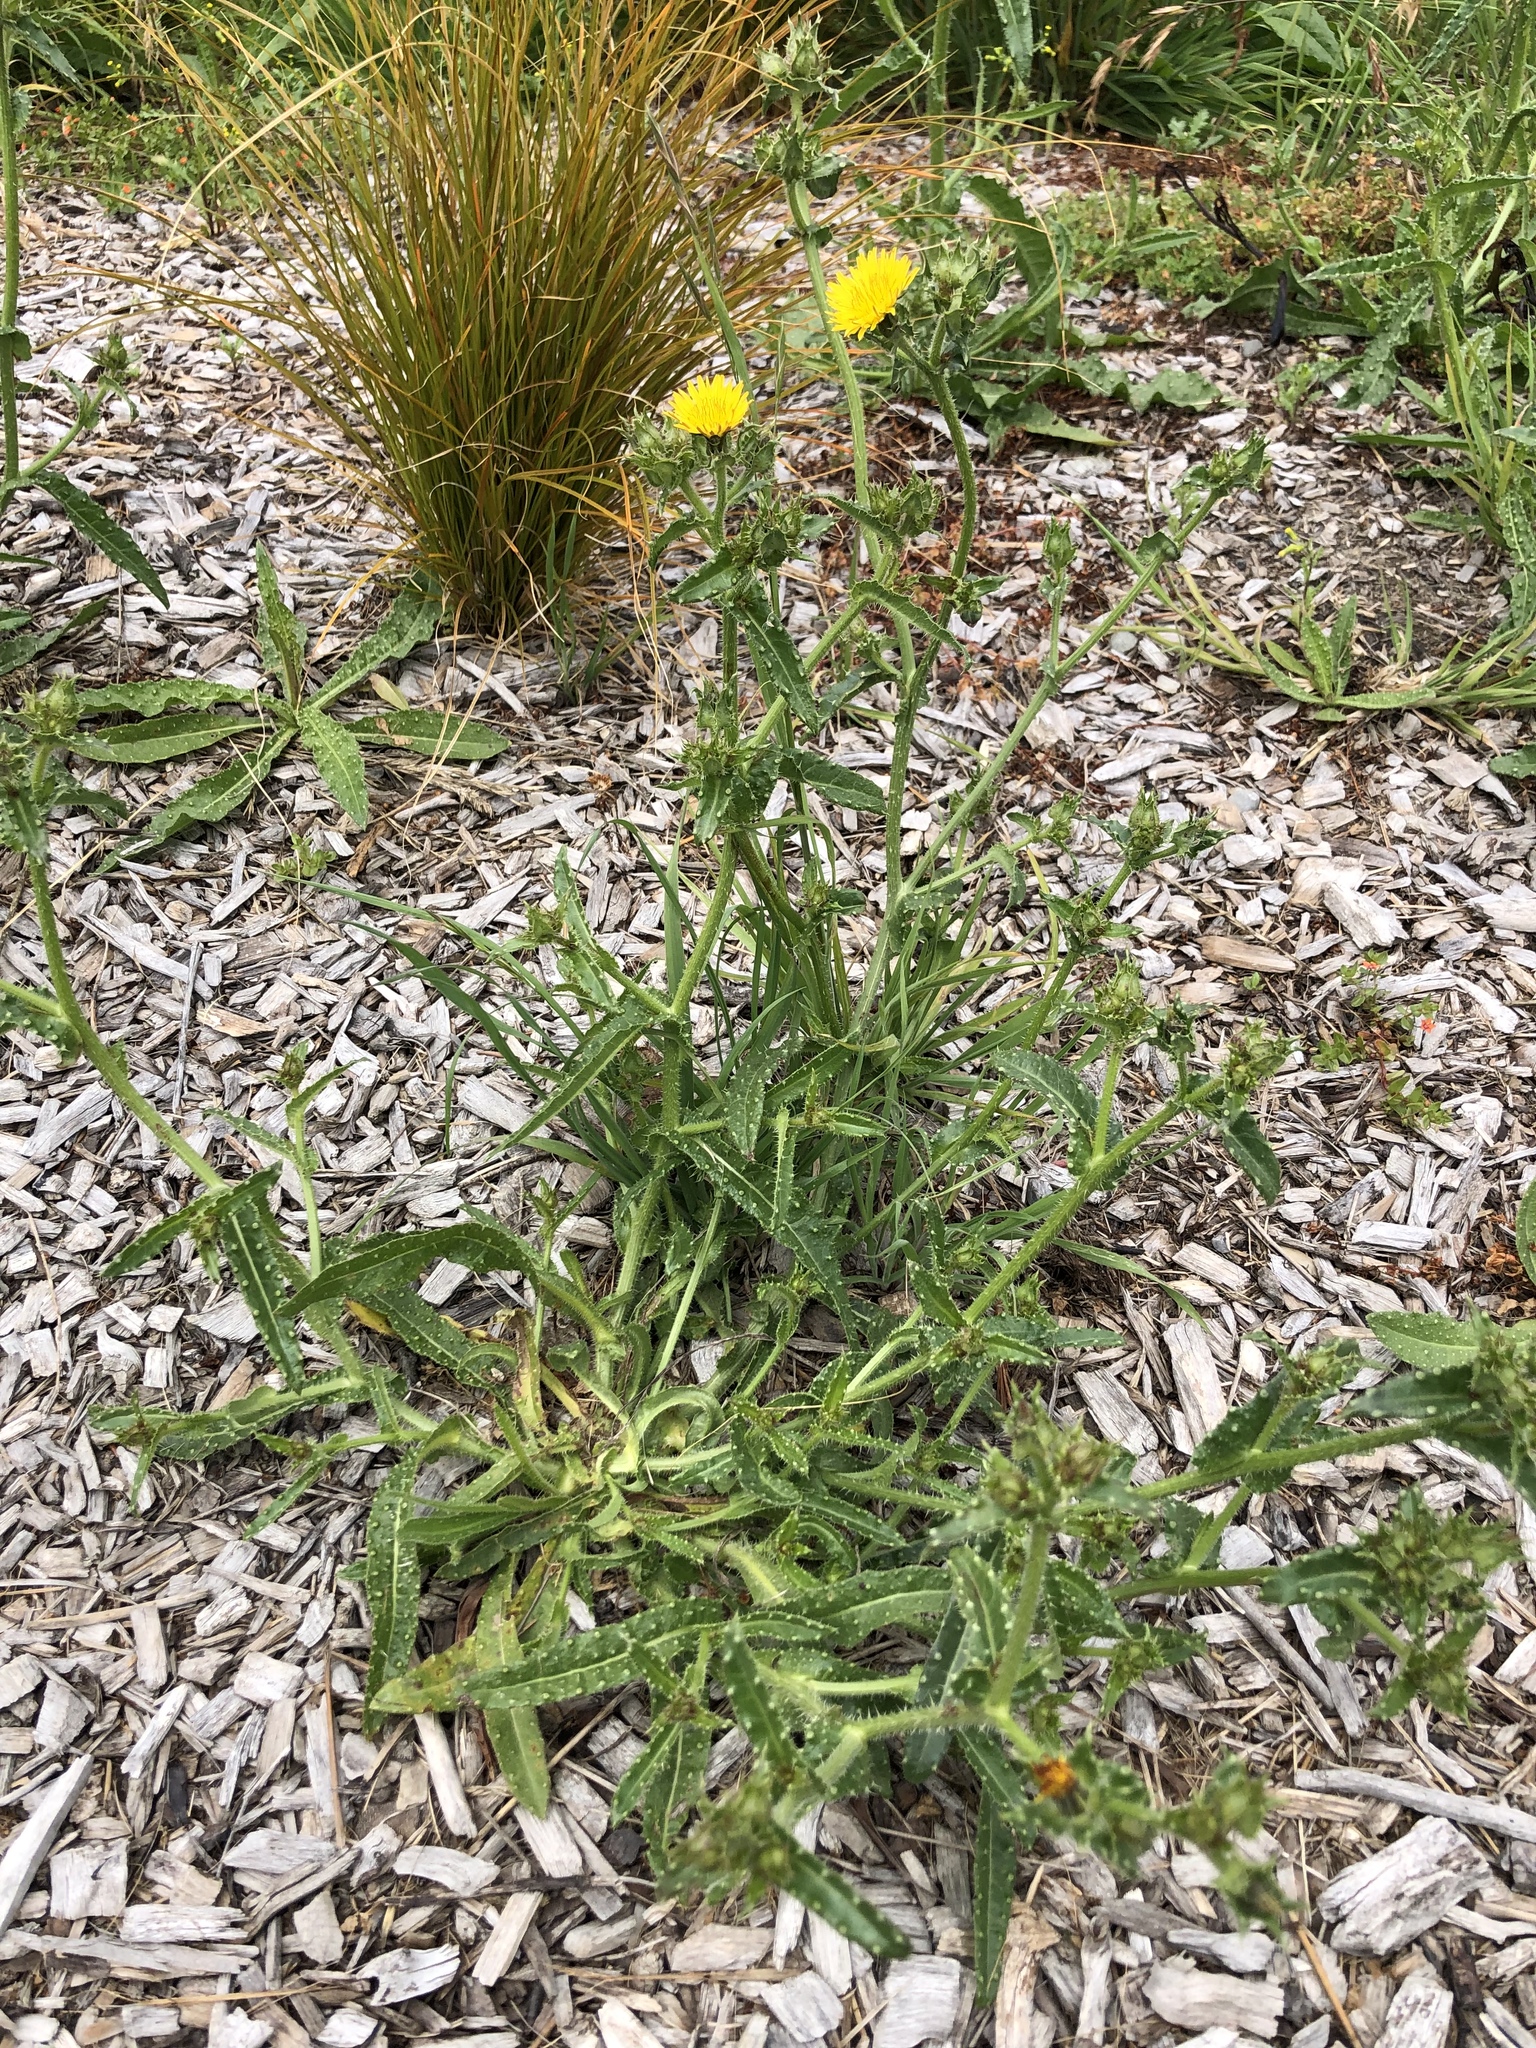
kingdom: Plantae
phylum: Tracheophyta
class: Magnoliopsida
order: Asterales
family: Asteraceae
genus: Helminthotheca
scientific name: Helminthotheca echioides
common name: Ox-tongue
